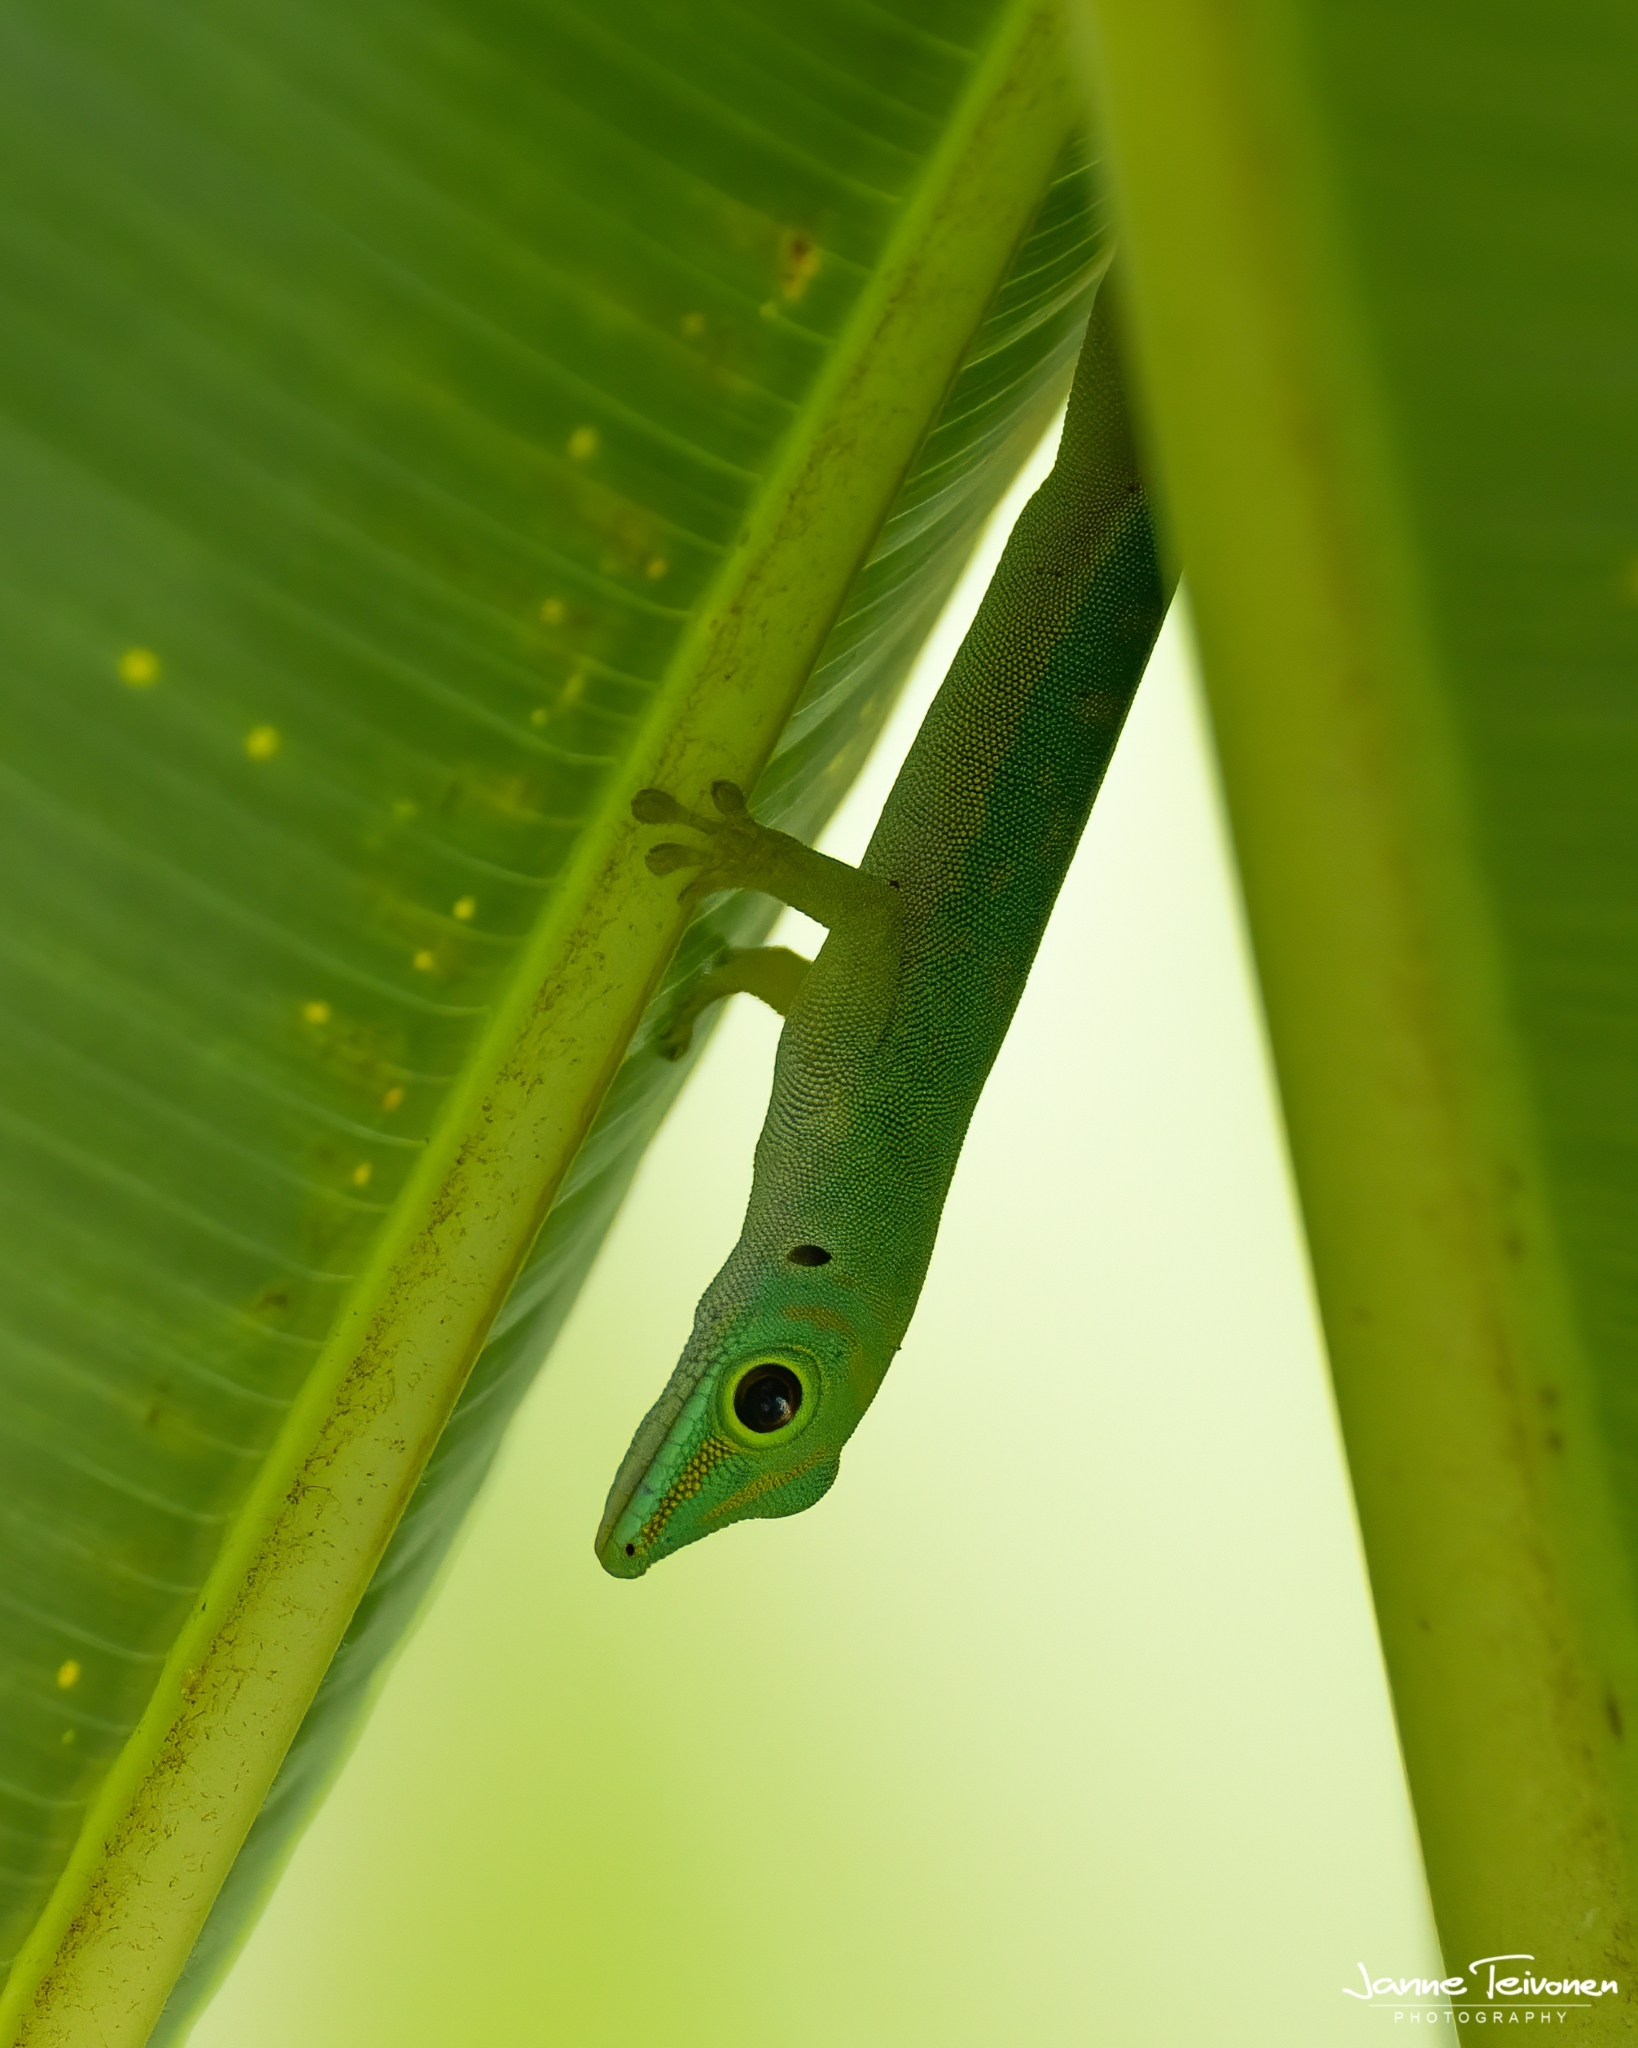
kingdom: Animalia
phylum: Chordata
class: Squamata
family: Gekkonidae
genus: Phelsuma
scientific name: Phelsuma astriata
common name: Seychelles day gecko
